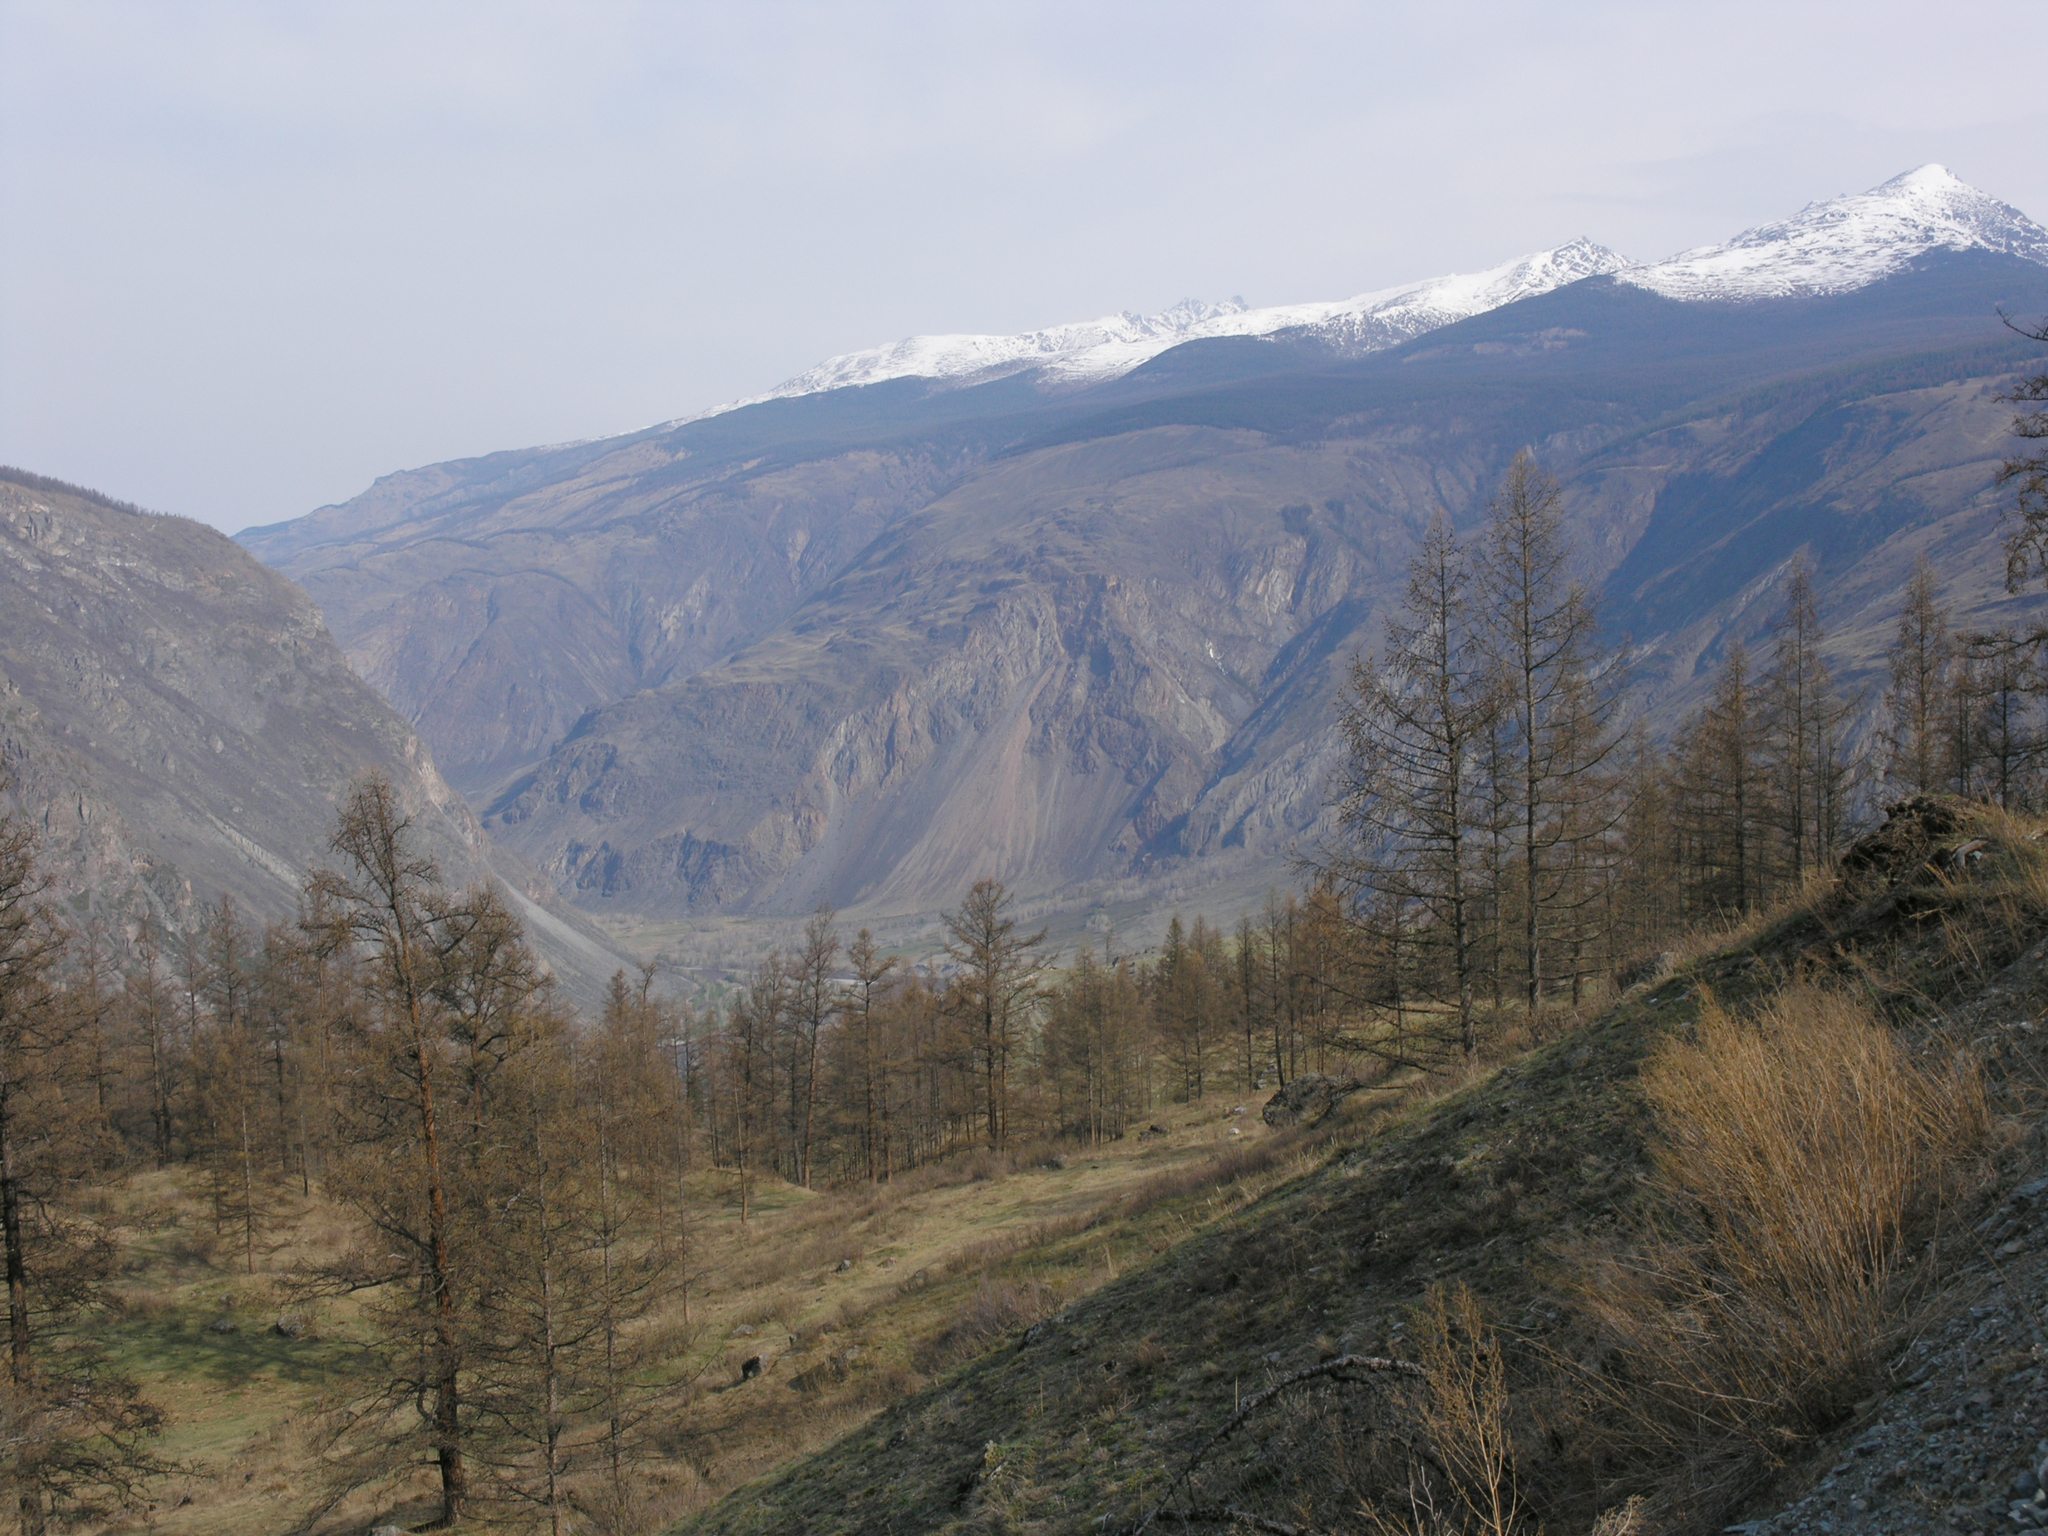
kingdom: Plantae
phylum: Tracheophyta
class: Pinopsida
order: Pinales
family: Pinaceae
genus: Larix
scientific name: Larix sibirica
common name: Siberian larch
